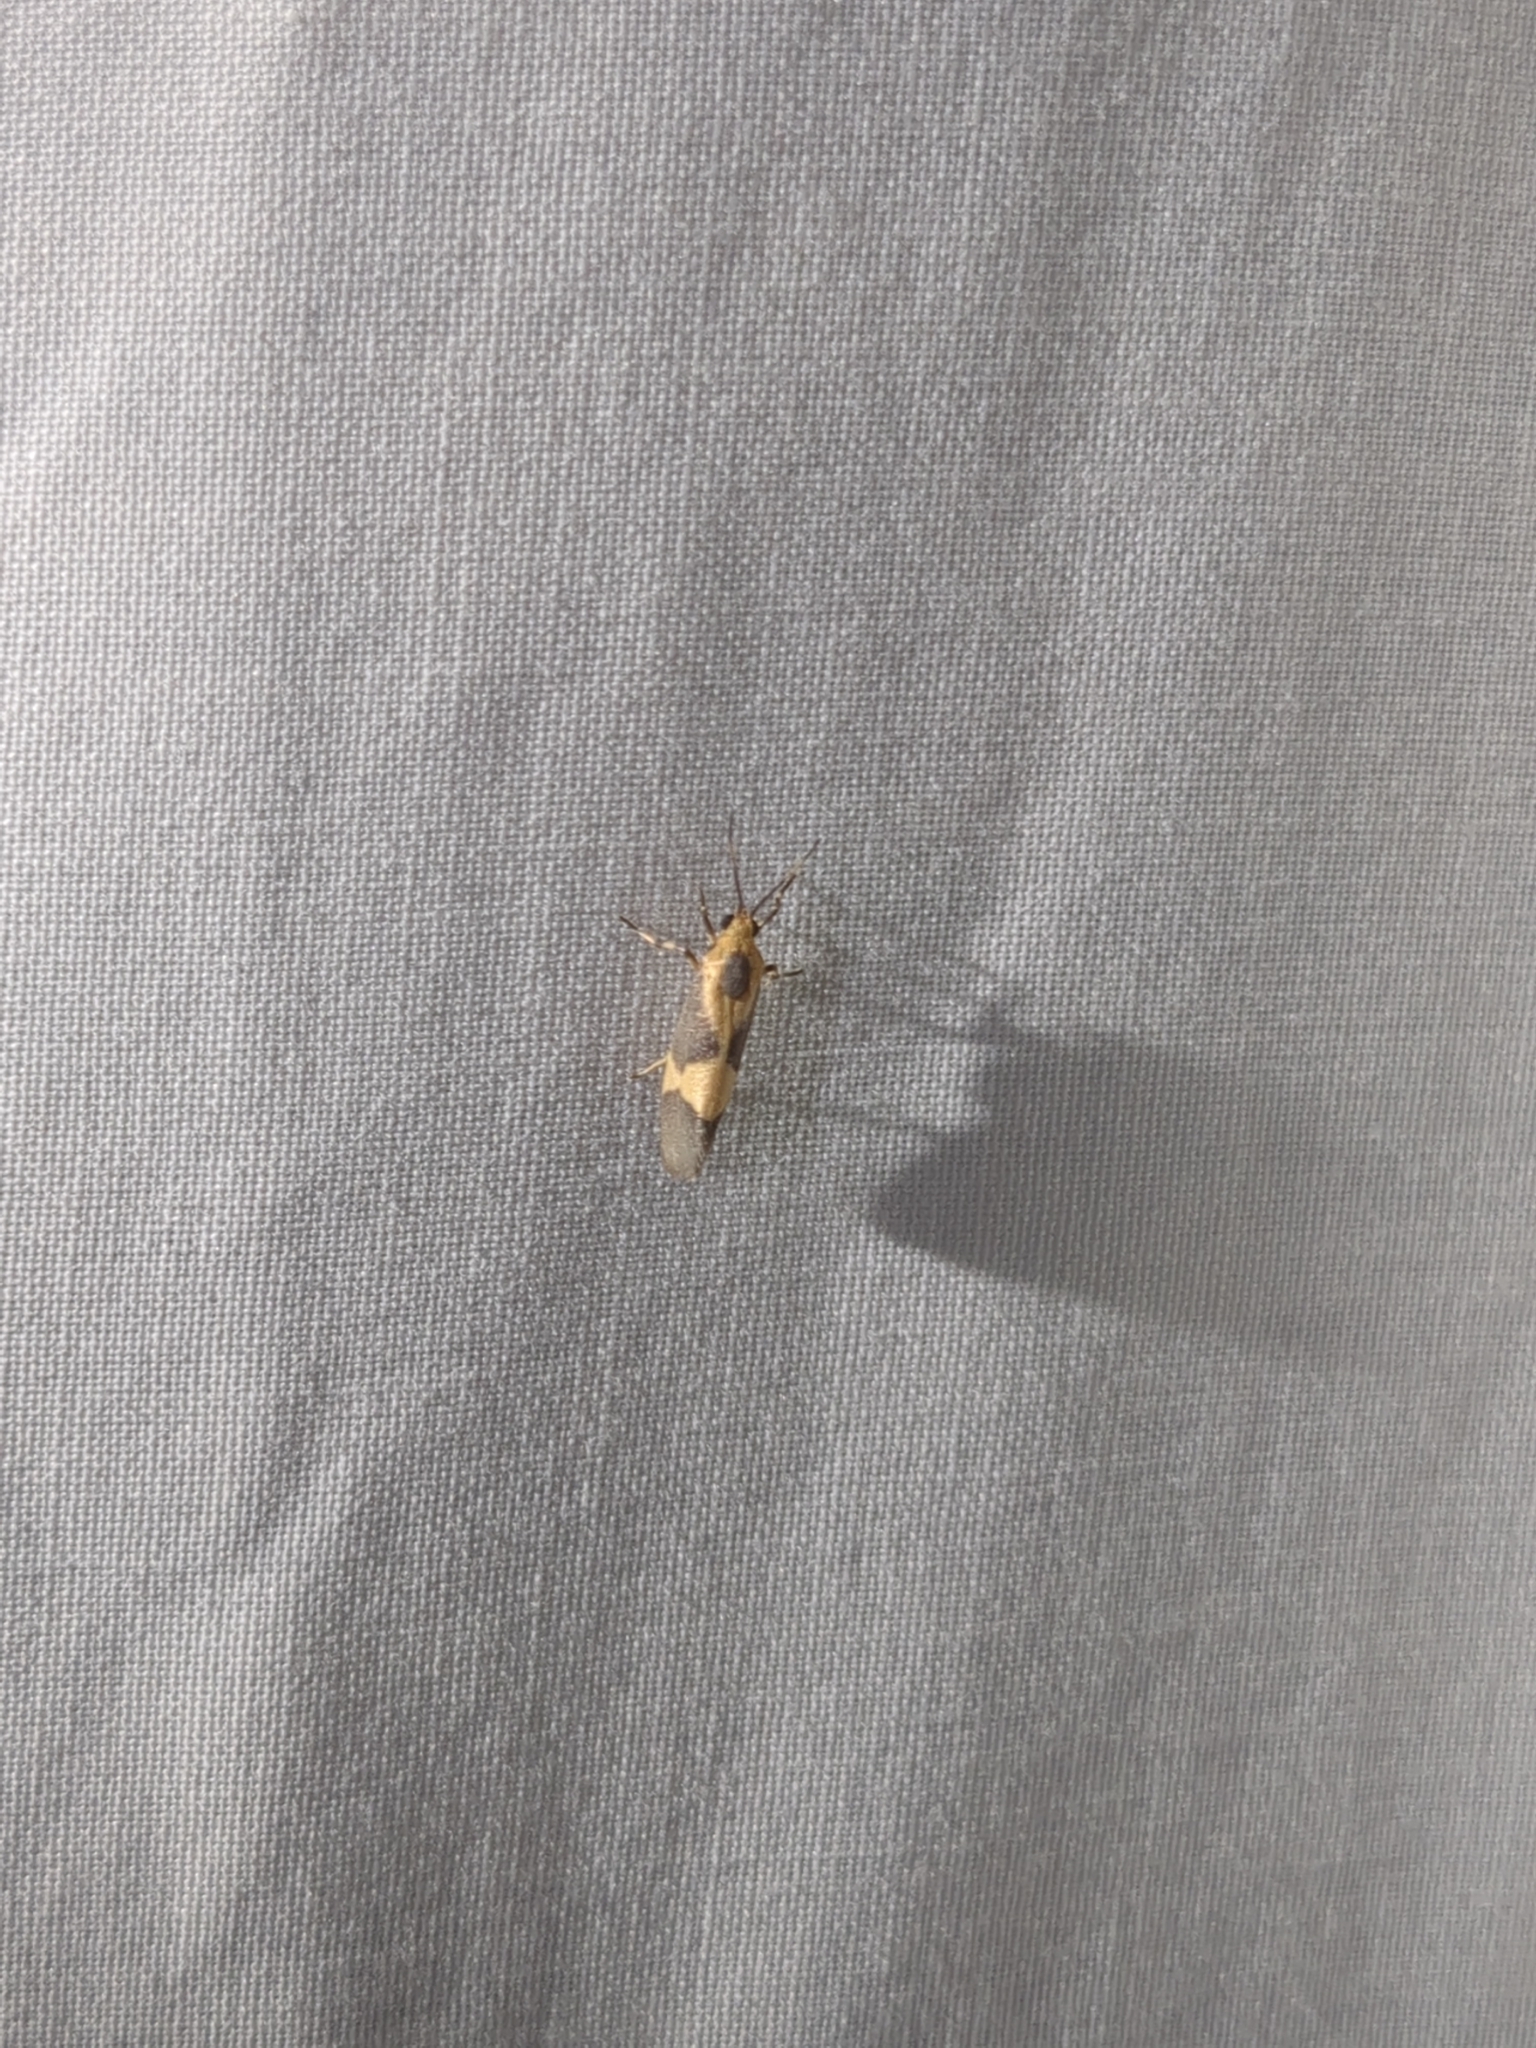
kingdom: Animalia
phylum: Arthropoda
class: Insecta
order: Lepidoptera
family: Erebidae
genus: Cisthene
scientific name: Cisthene unifascia
